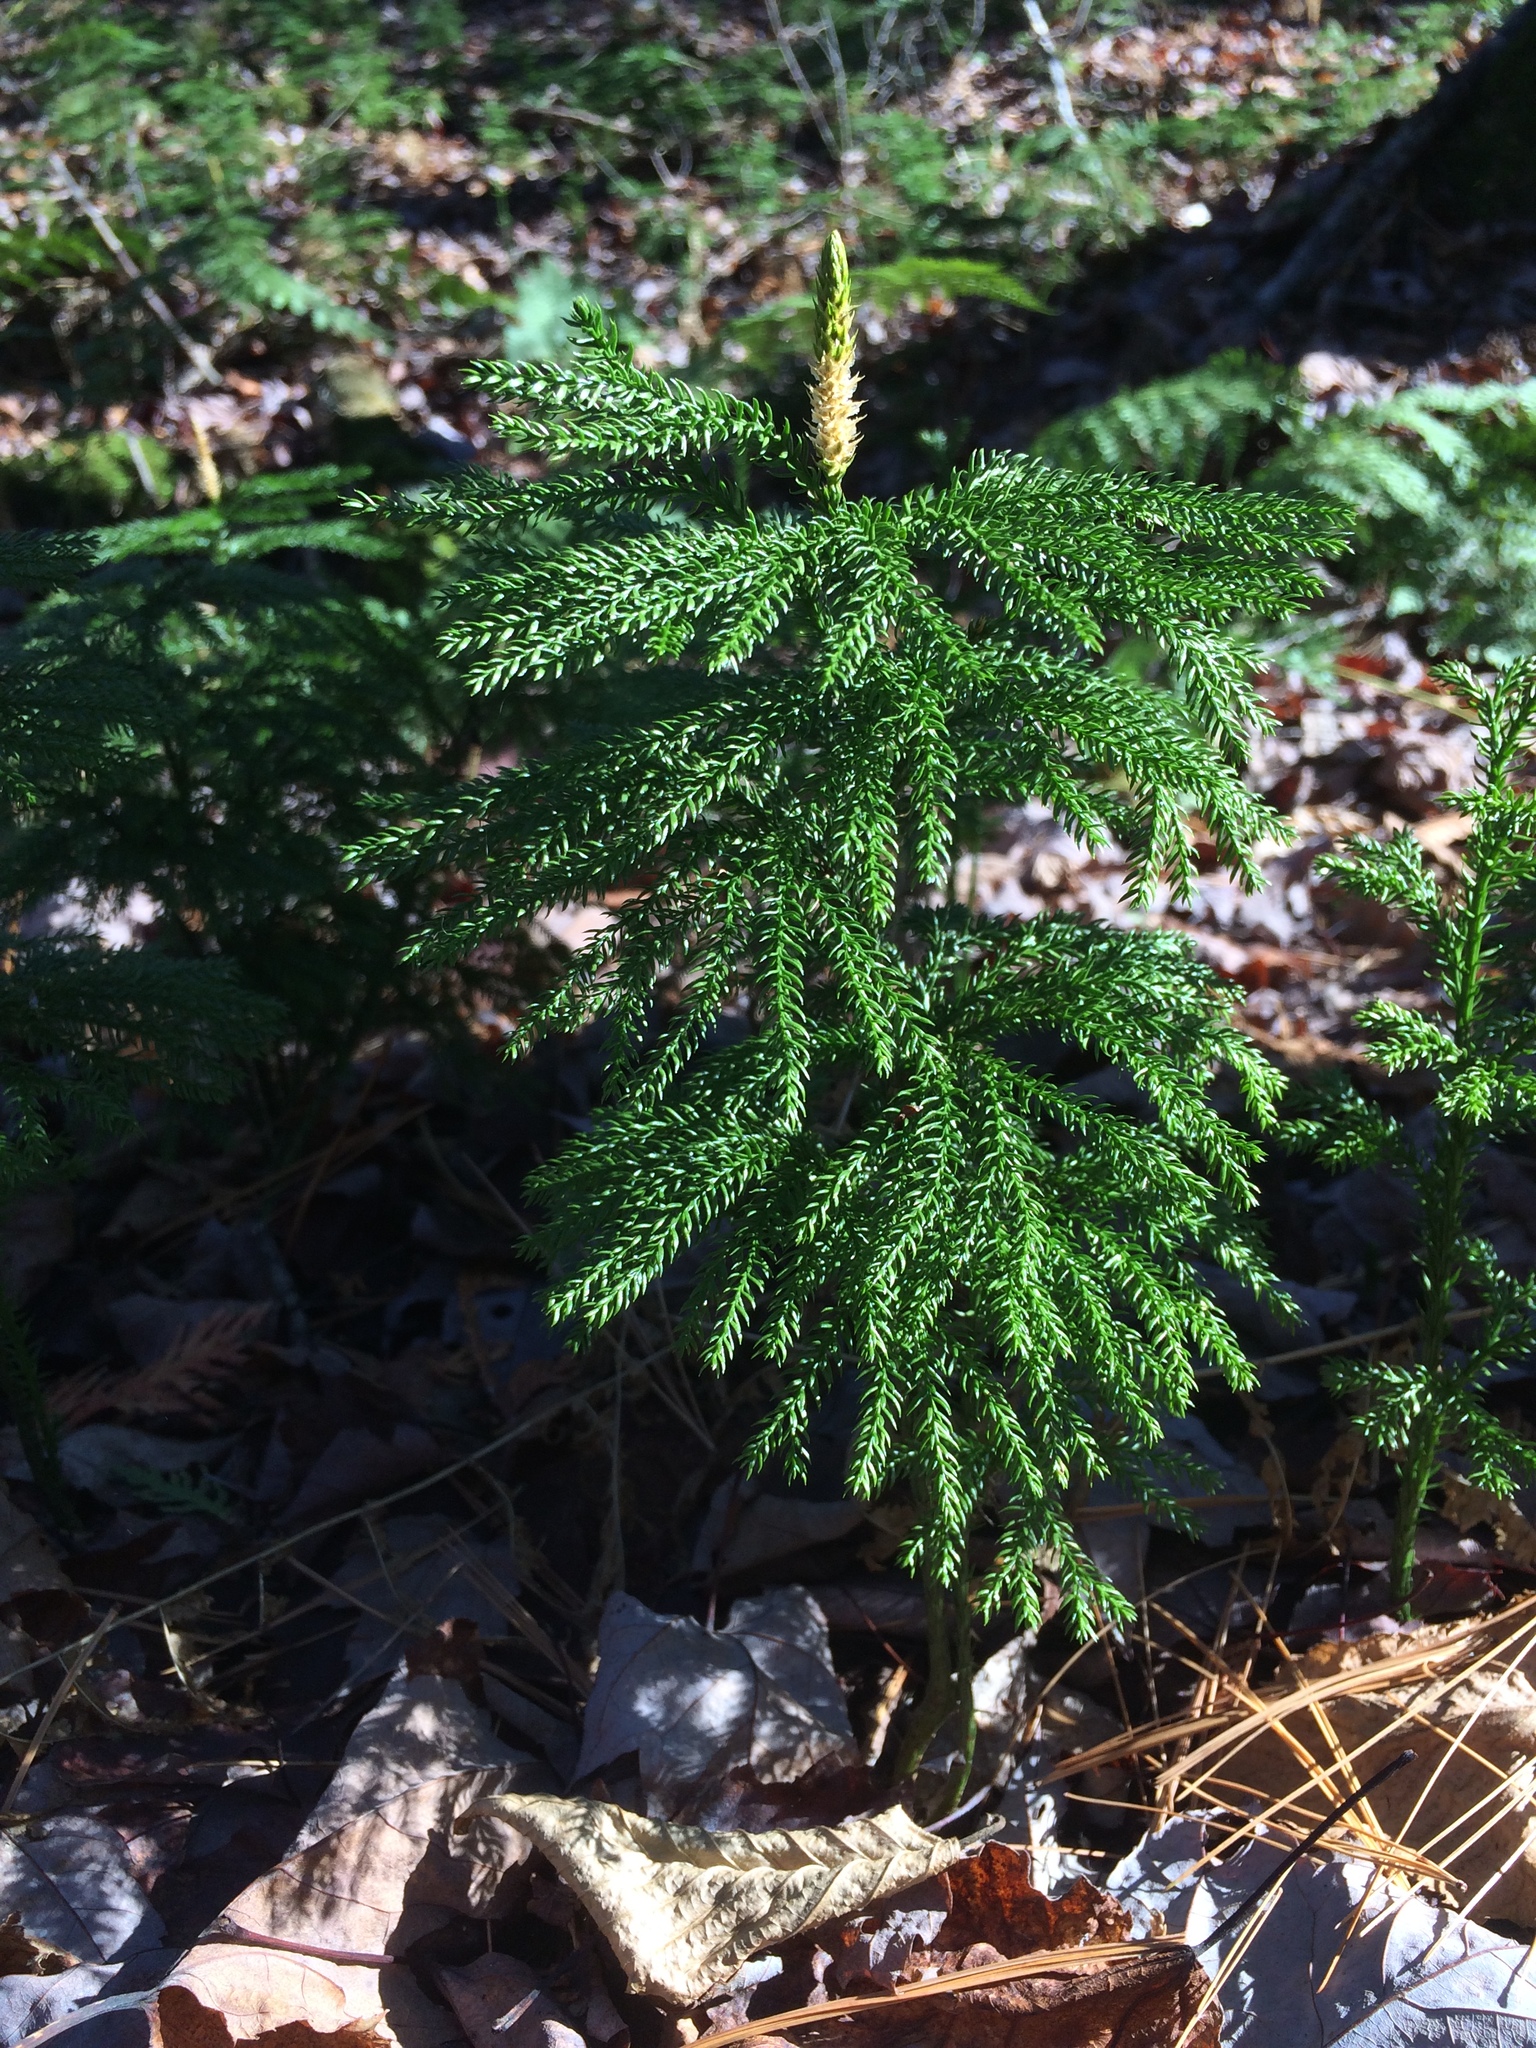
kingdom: Plantae
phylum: Tracheophyta
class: Lycopodiopsida
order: Lycopodiales
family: Lycopodiaceae
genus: Dendrolycopodium
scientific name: Dendrolycopodium dendroideum
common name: Northern tree-clubmoss
